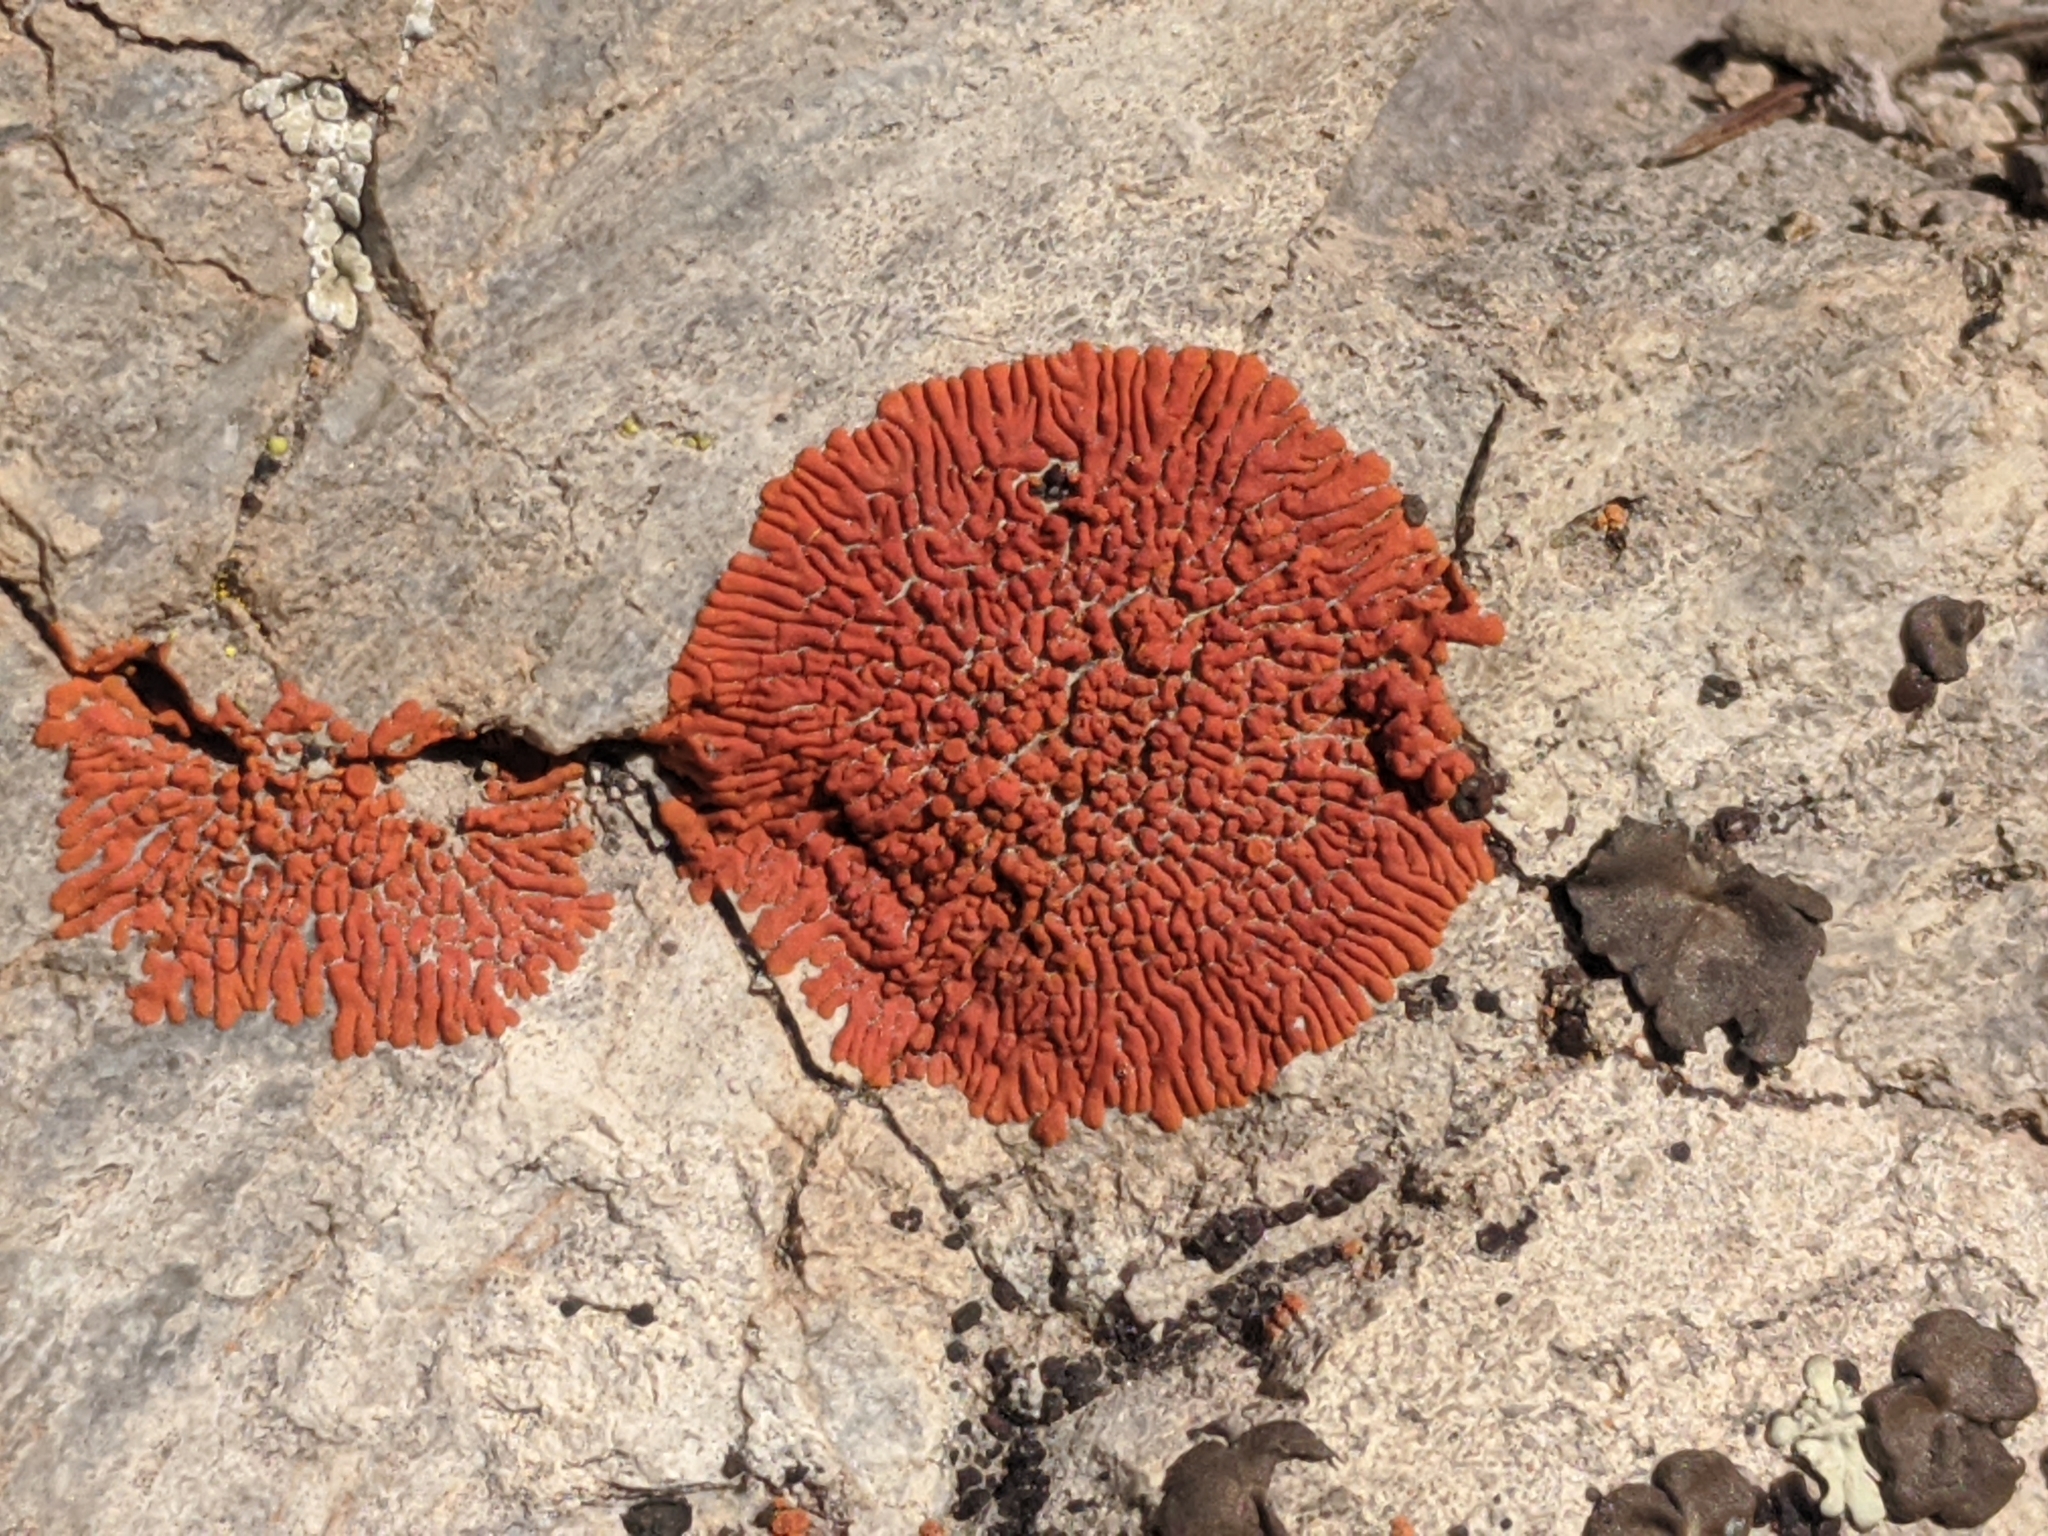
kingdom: Fungi
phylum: Ascomycota
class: Lecanoromycetes
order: Teloschistales
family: Teloschistaceae
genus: Igneoplaca
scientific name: Igneoplaca ignea
